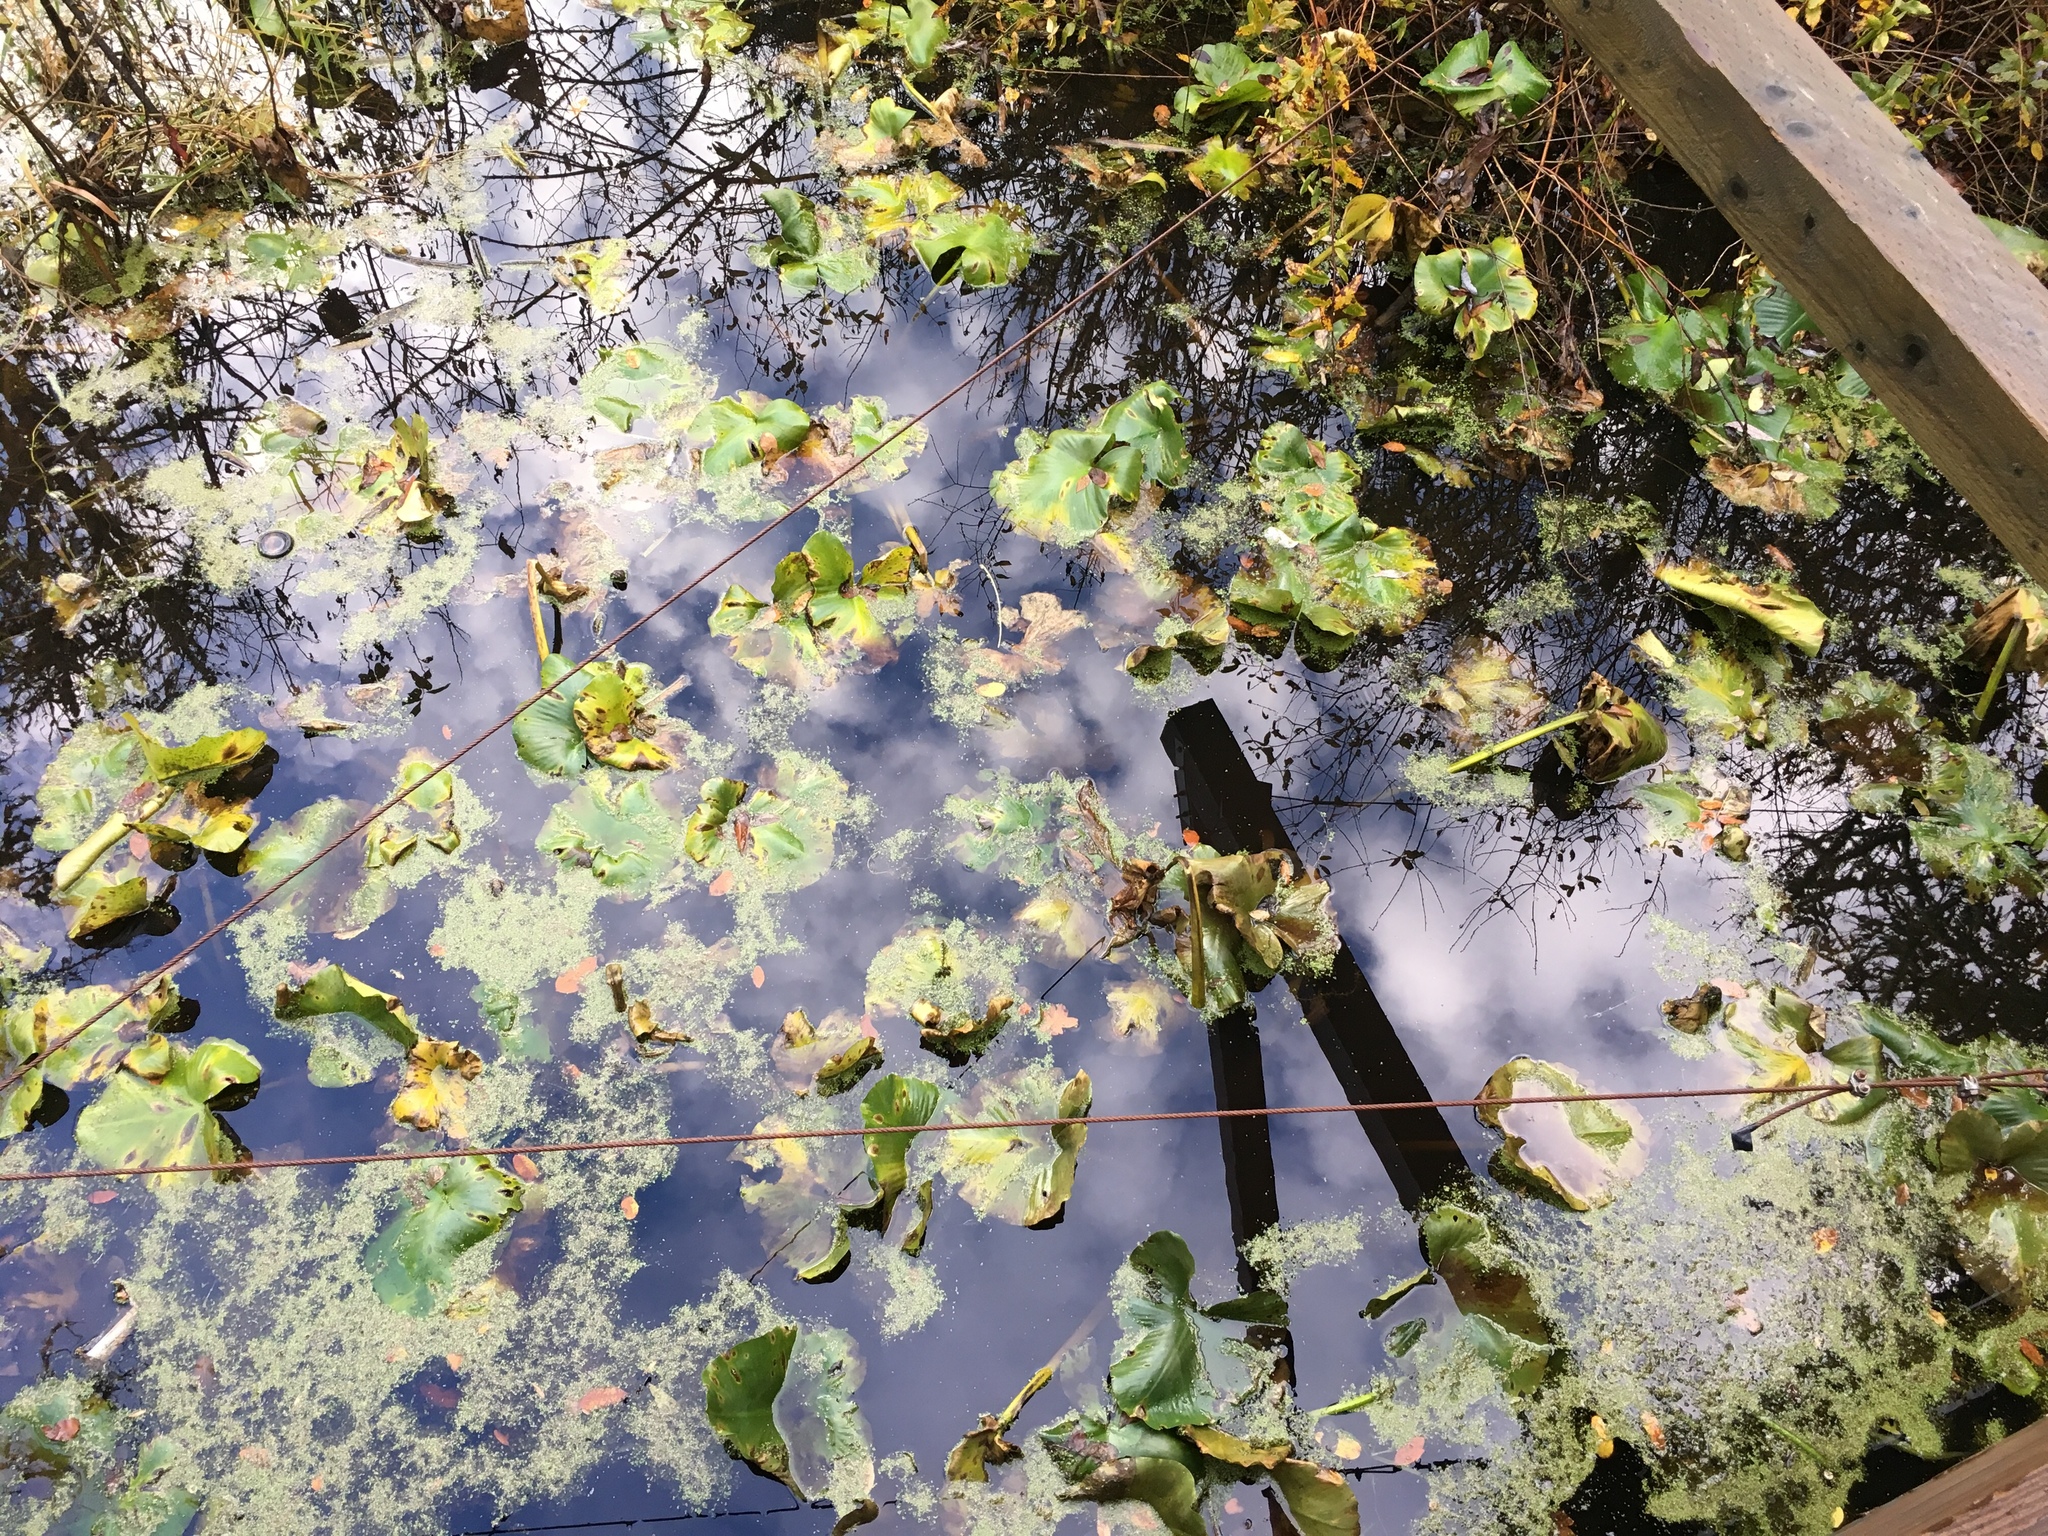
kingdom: Plantae
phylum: Tracheophyta
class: Magnoliopsida
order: Nymphaeales
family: Nymphaeaceae
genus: Nuphar
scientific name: Nuphar polysepala
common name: Rocky mountain cow-lily
